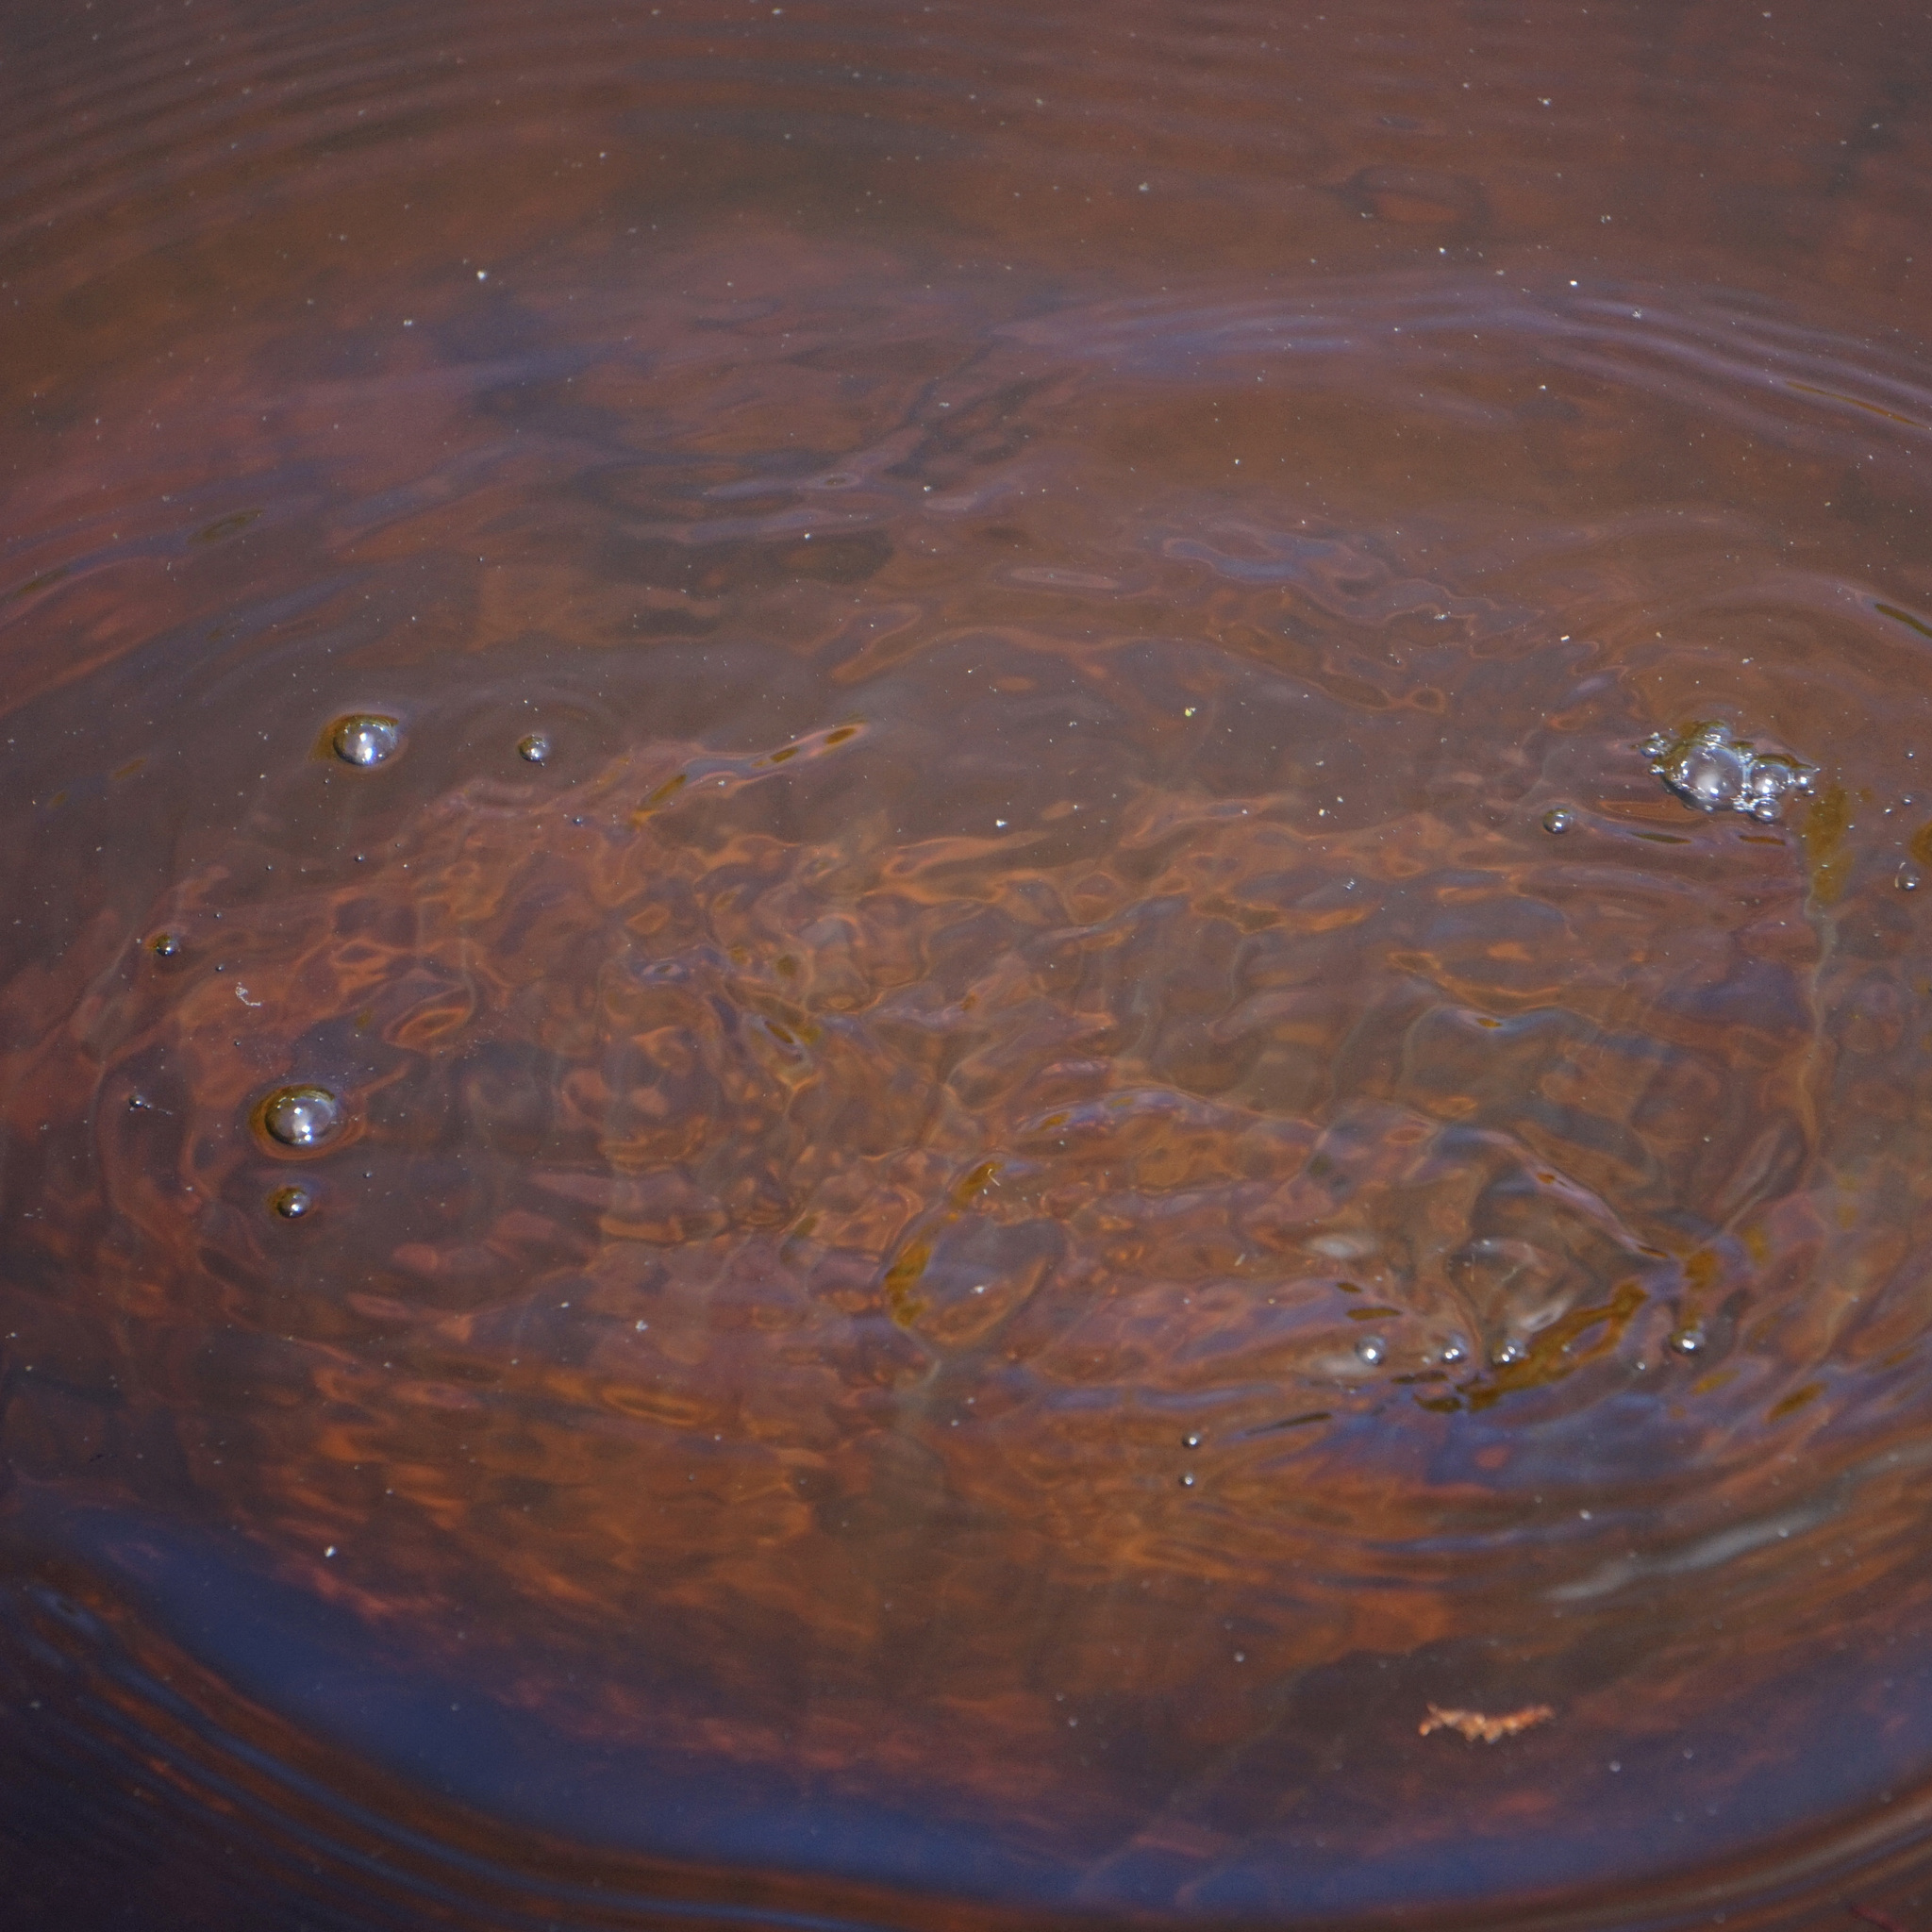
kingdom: Animalia
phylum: Chordata
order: Perciformes
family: Centrarchidae
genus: Lepomis
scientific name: Lepomis macrochirus
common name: Bluegill
